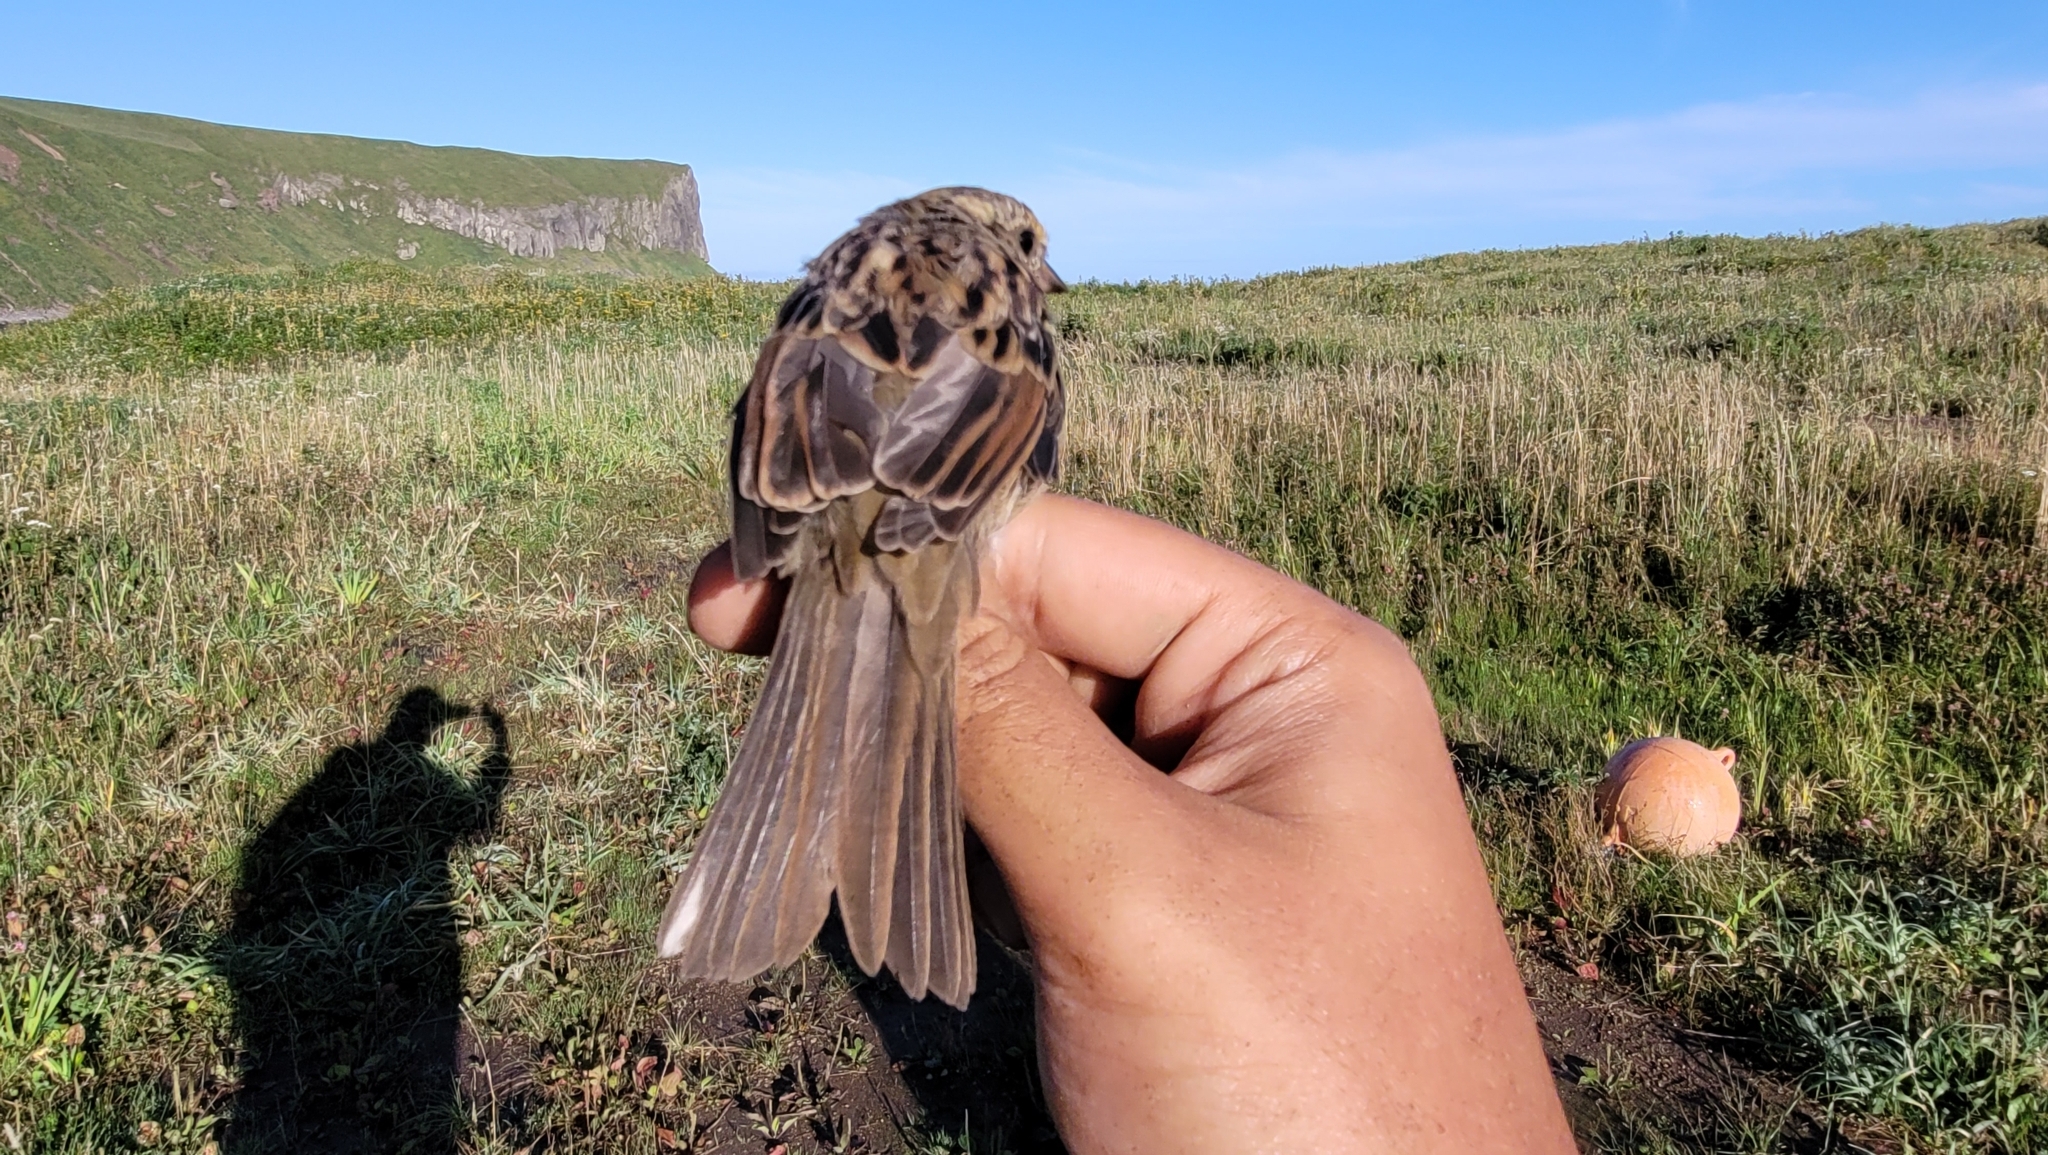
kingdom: Animalia
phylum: Chordata
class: Aves
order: Passeriformes
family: Emberizidae
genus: Emberiza
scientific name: Emberiza personata
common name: Masked bunting
